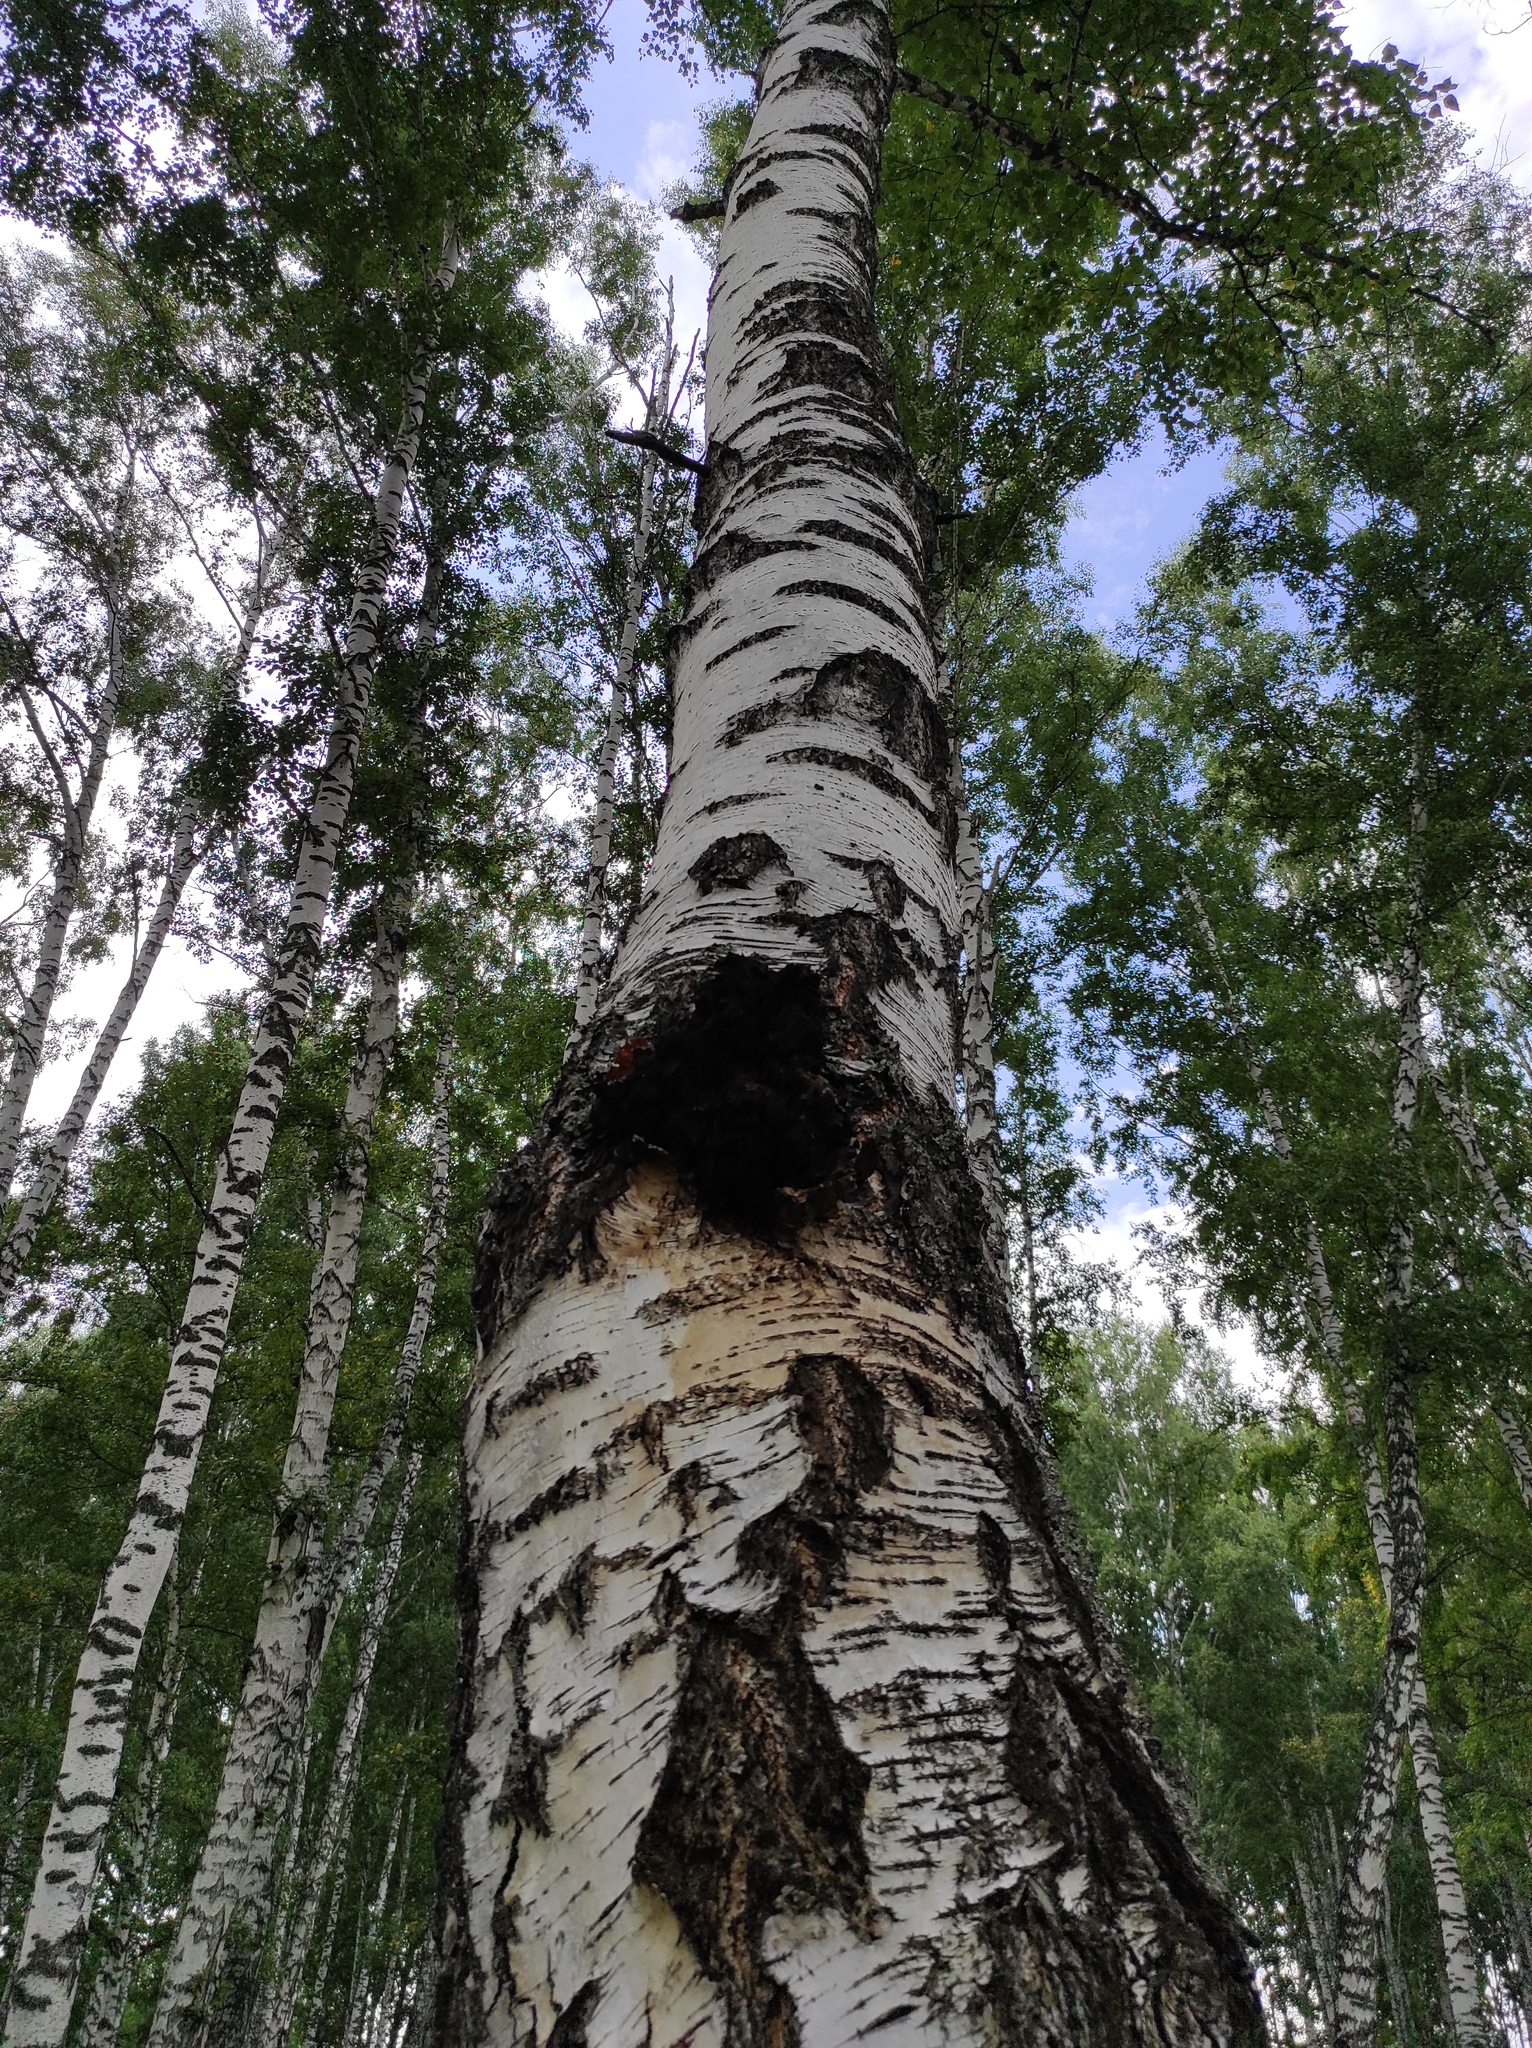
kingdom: Fungi
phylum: Basidiomycota
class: Agaricomycetes
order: Hymenochaetales
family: Hymenochaetaceae
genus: Inonotus
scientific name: Inonotus obliquus
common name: Chaga
